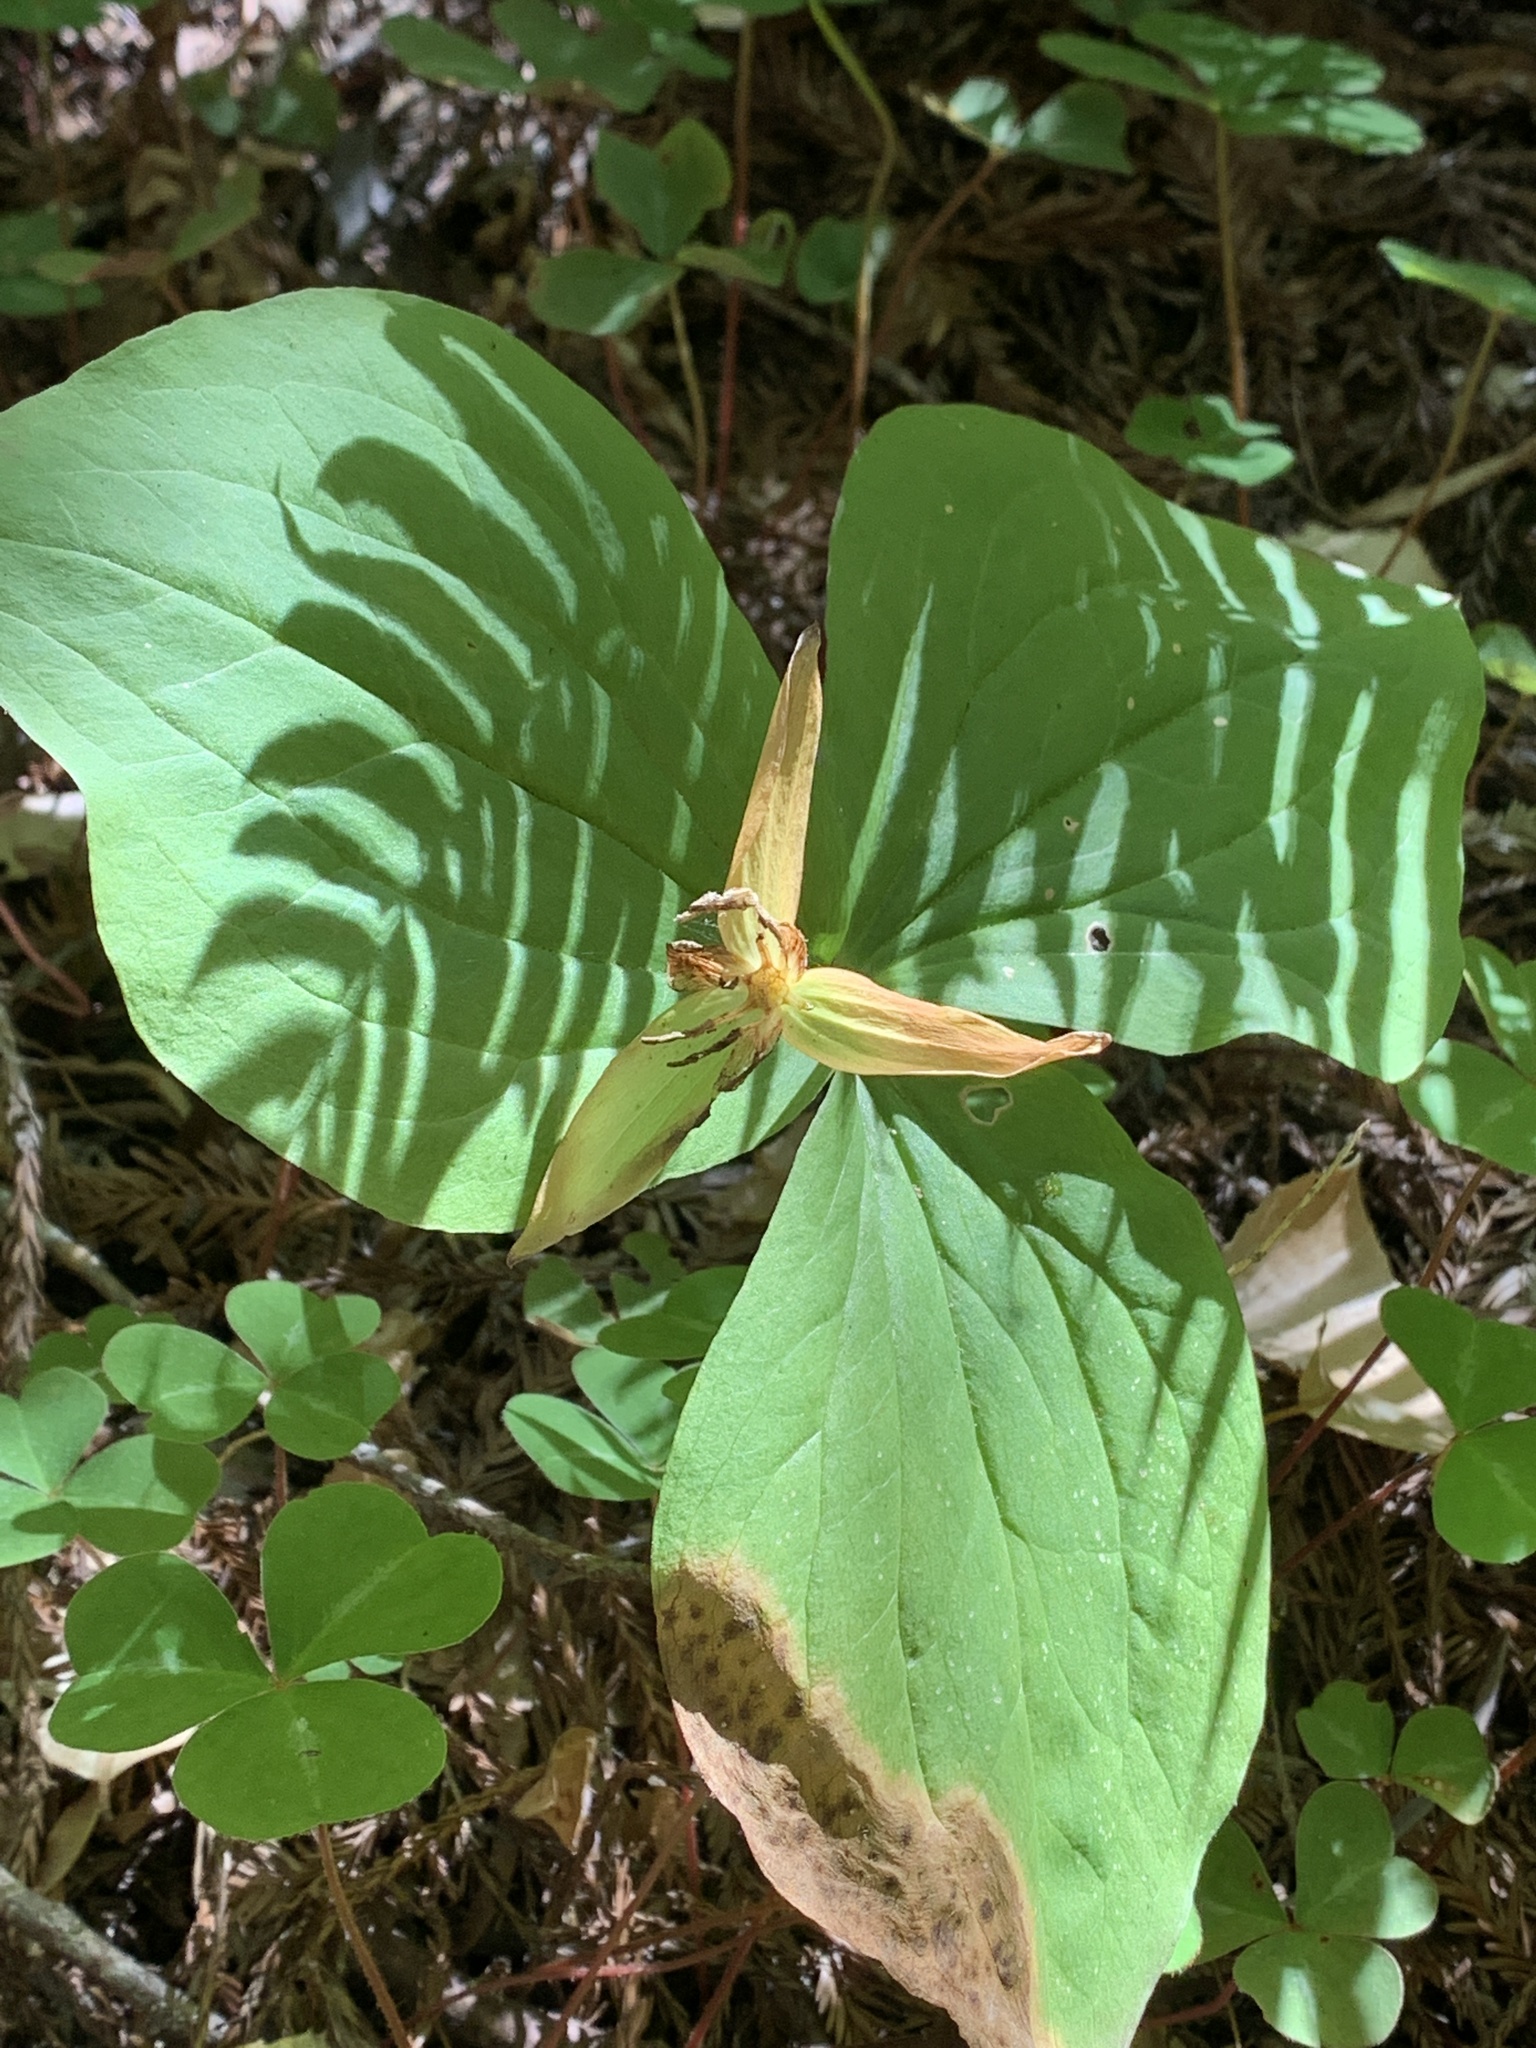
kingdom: Plantae
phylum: Tracheophyta
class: Liliopsida
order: Liliales
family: Melanthiaceae
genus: Trillium
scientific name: Trillium ovatum
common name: Pacific trillium
